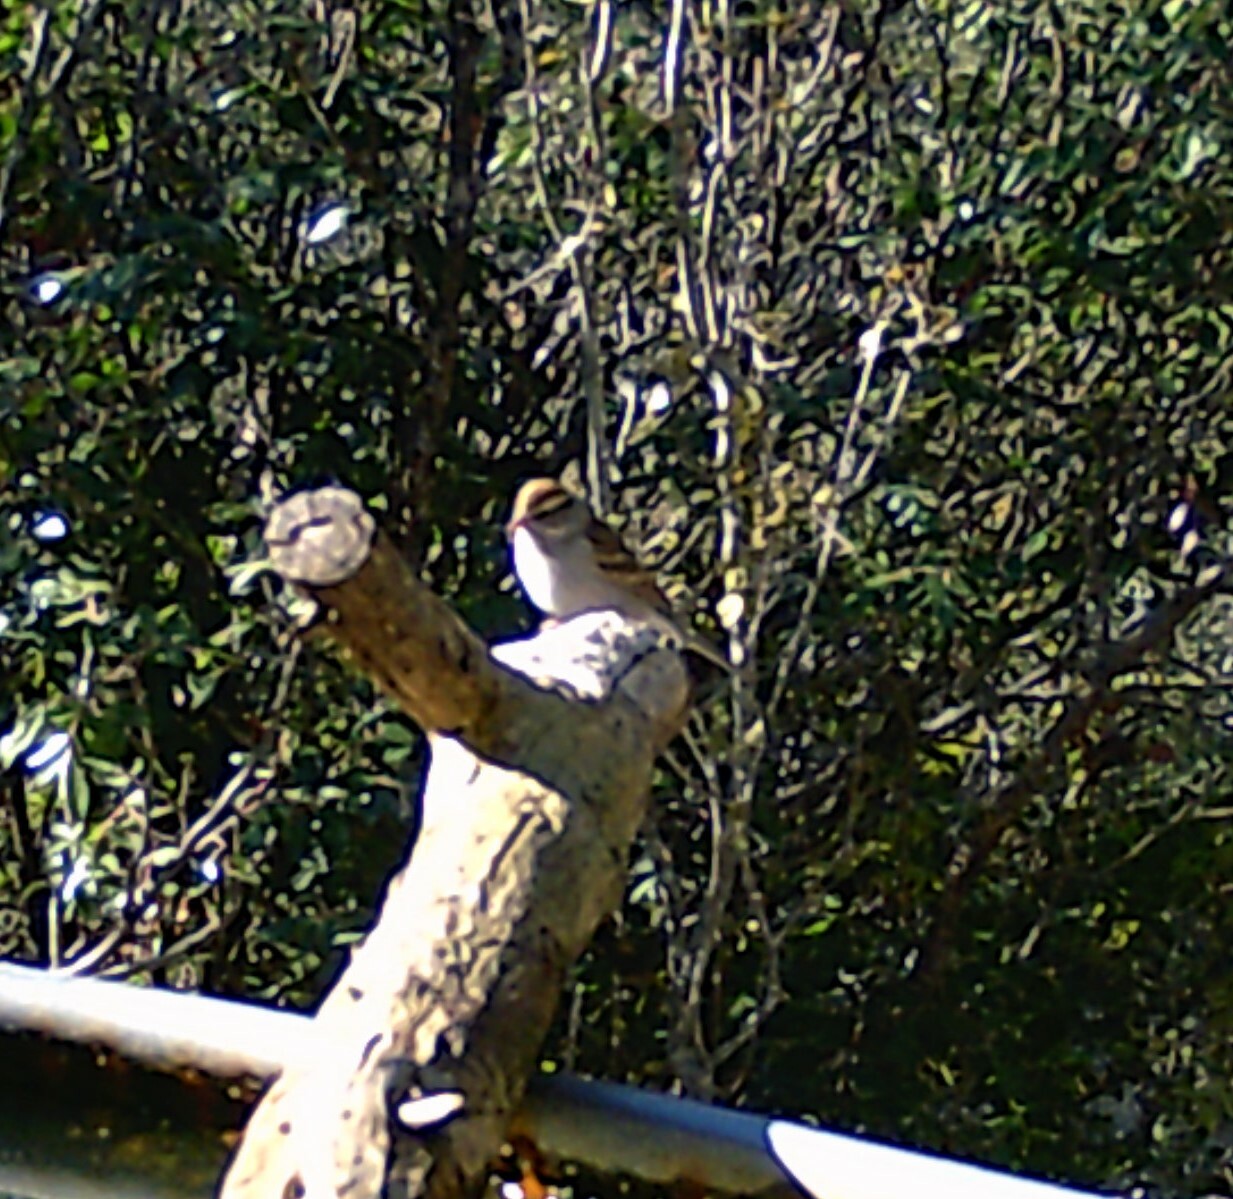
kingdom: Animalia
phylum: Chordata
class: Aves
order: Passeriformes
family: Passerellidae
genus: Spizella
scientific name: Spizella passerina
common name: Chipping sparrow
